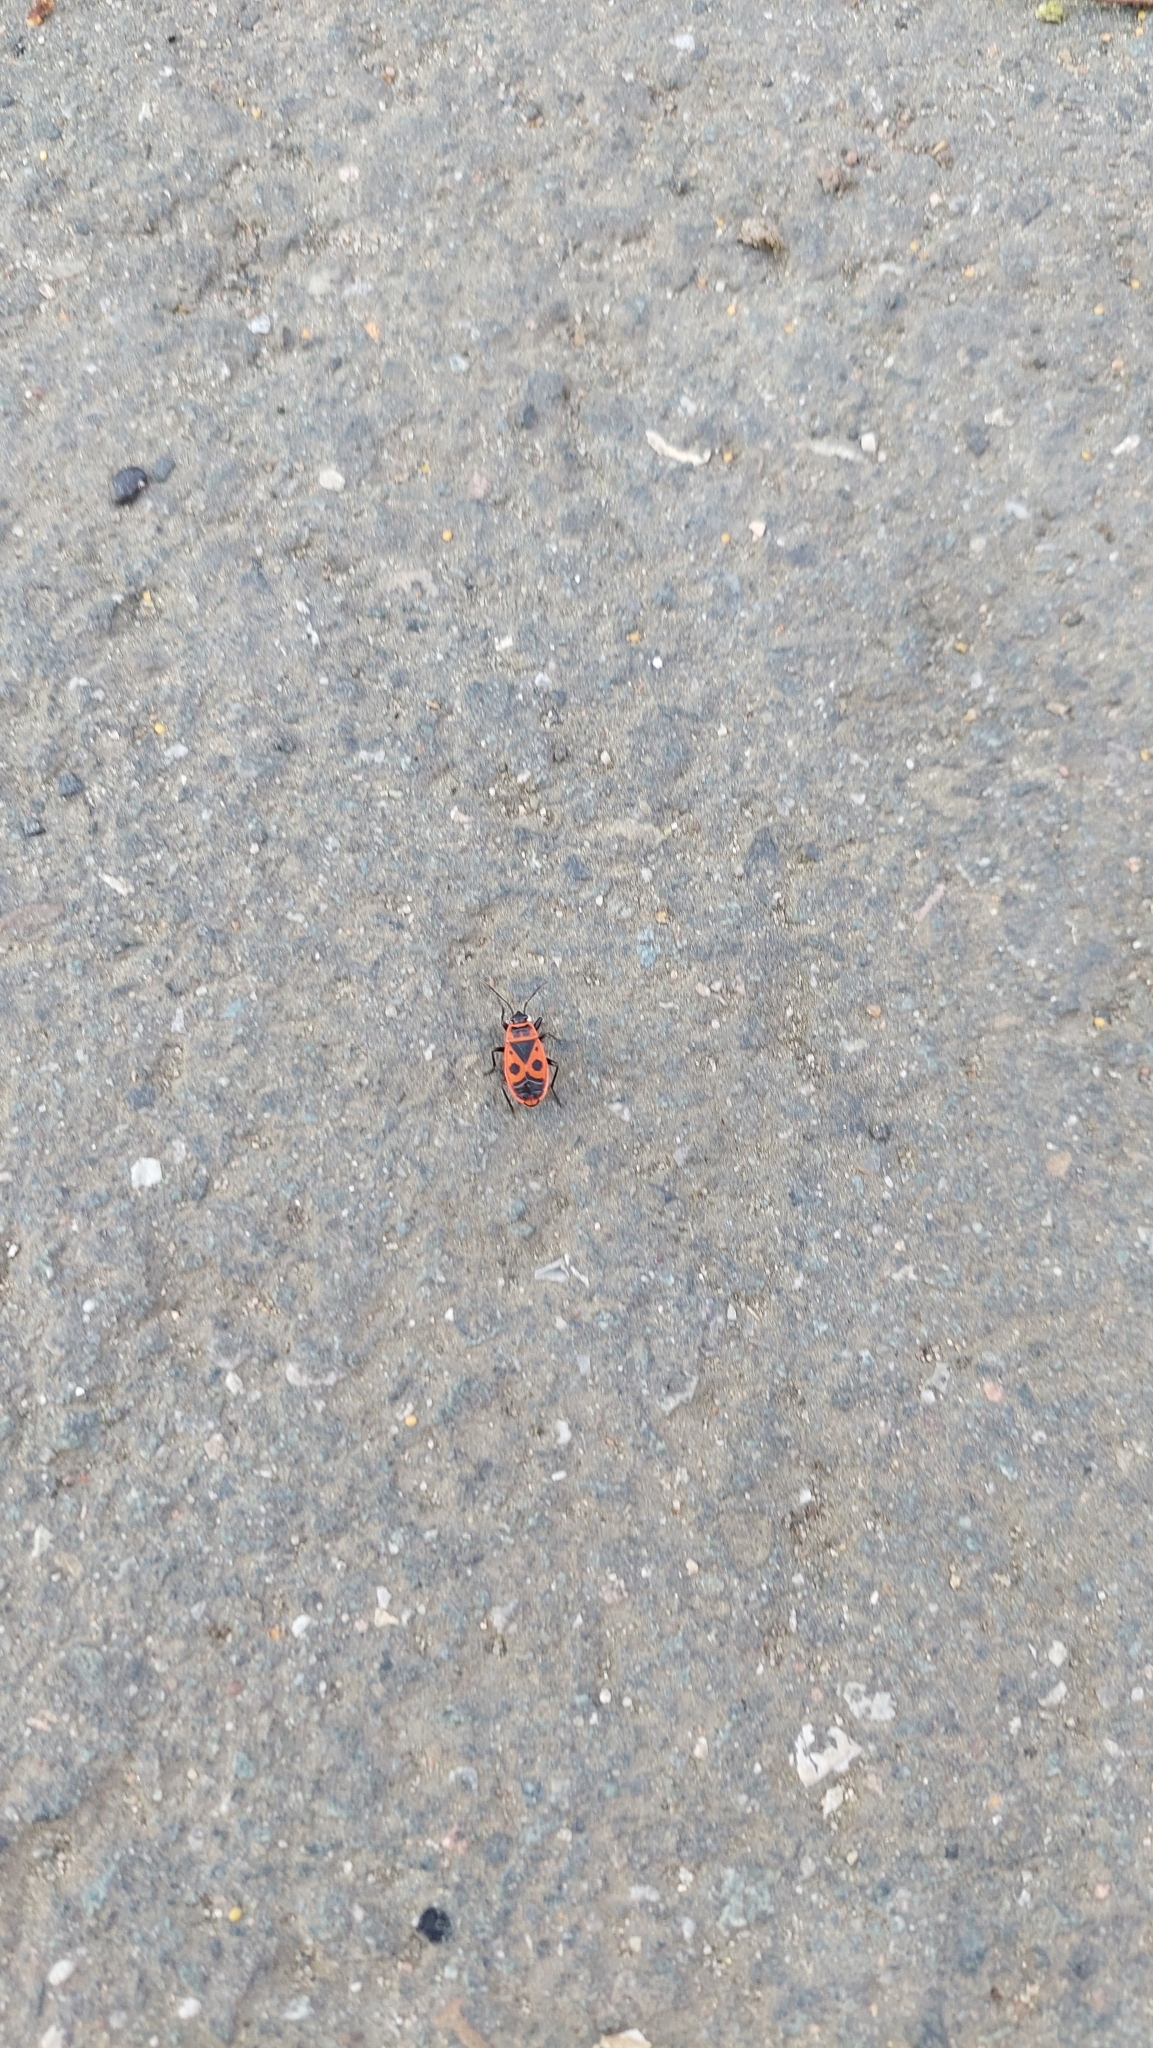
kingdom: Animalia
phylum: Arthropoda
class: Insecta
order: Hemiptera
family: Pyrrhocoridae
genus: Pyrrhocoris
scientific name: Pyrrhocoris apterus
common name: Firebug
